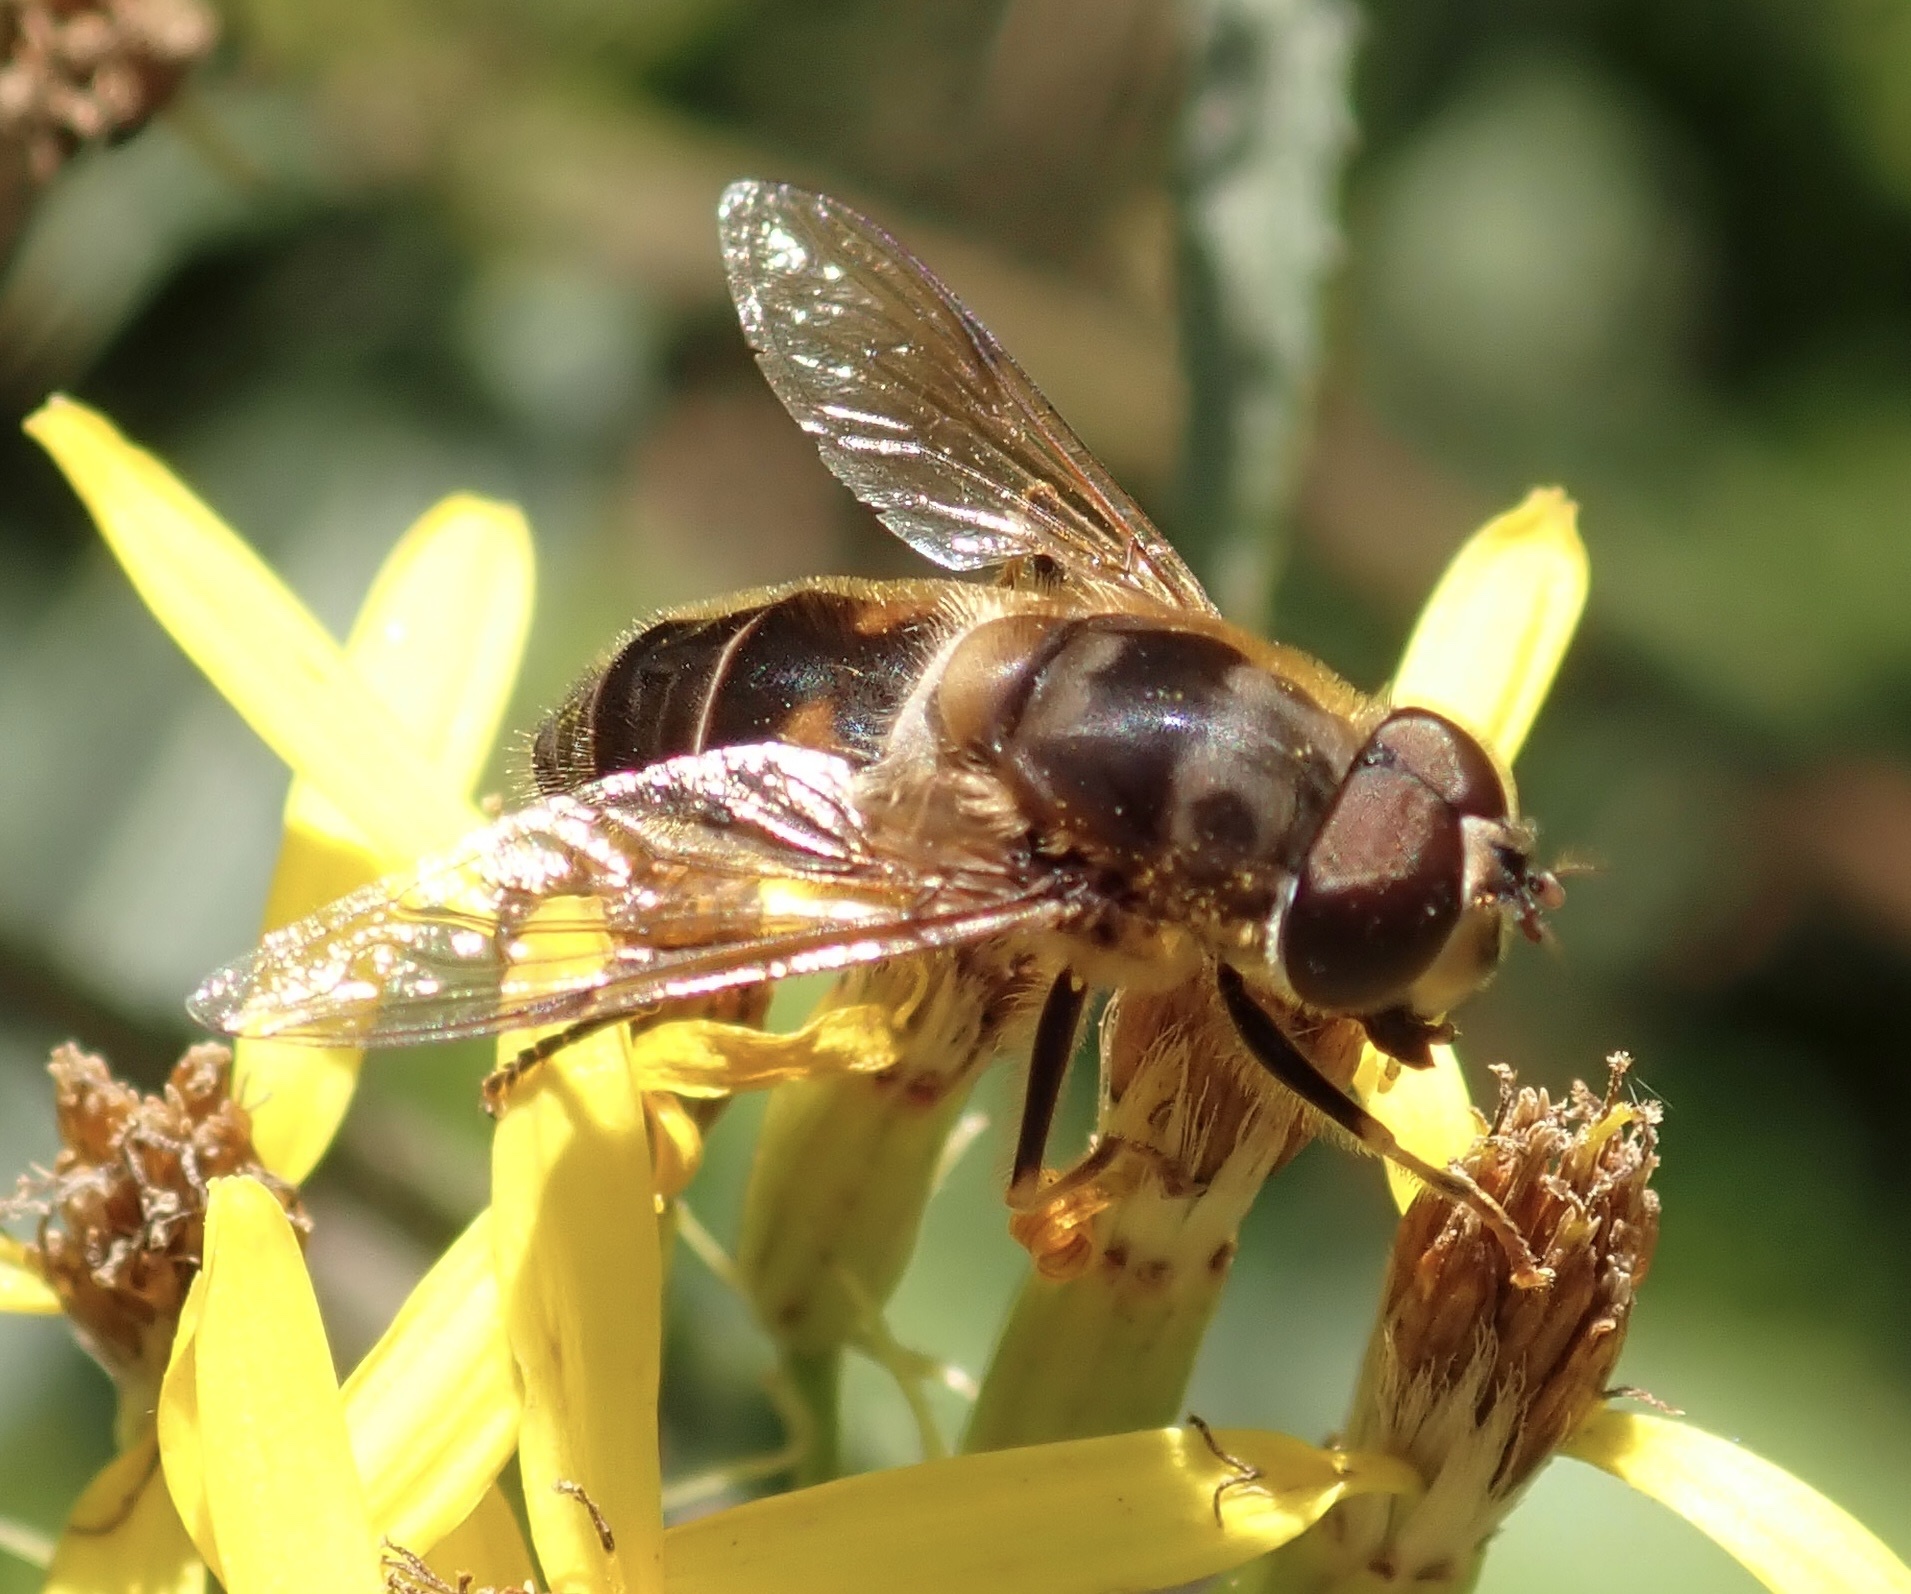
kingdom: Animalia
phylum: Arthropoda
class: Insecta
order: Diptera
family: Syrphidae
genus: Eristalis
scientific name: Eristalis pertinax
